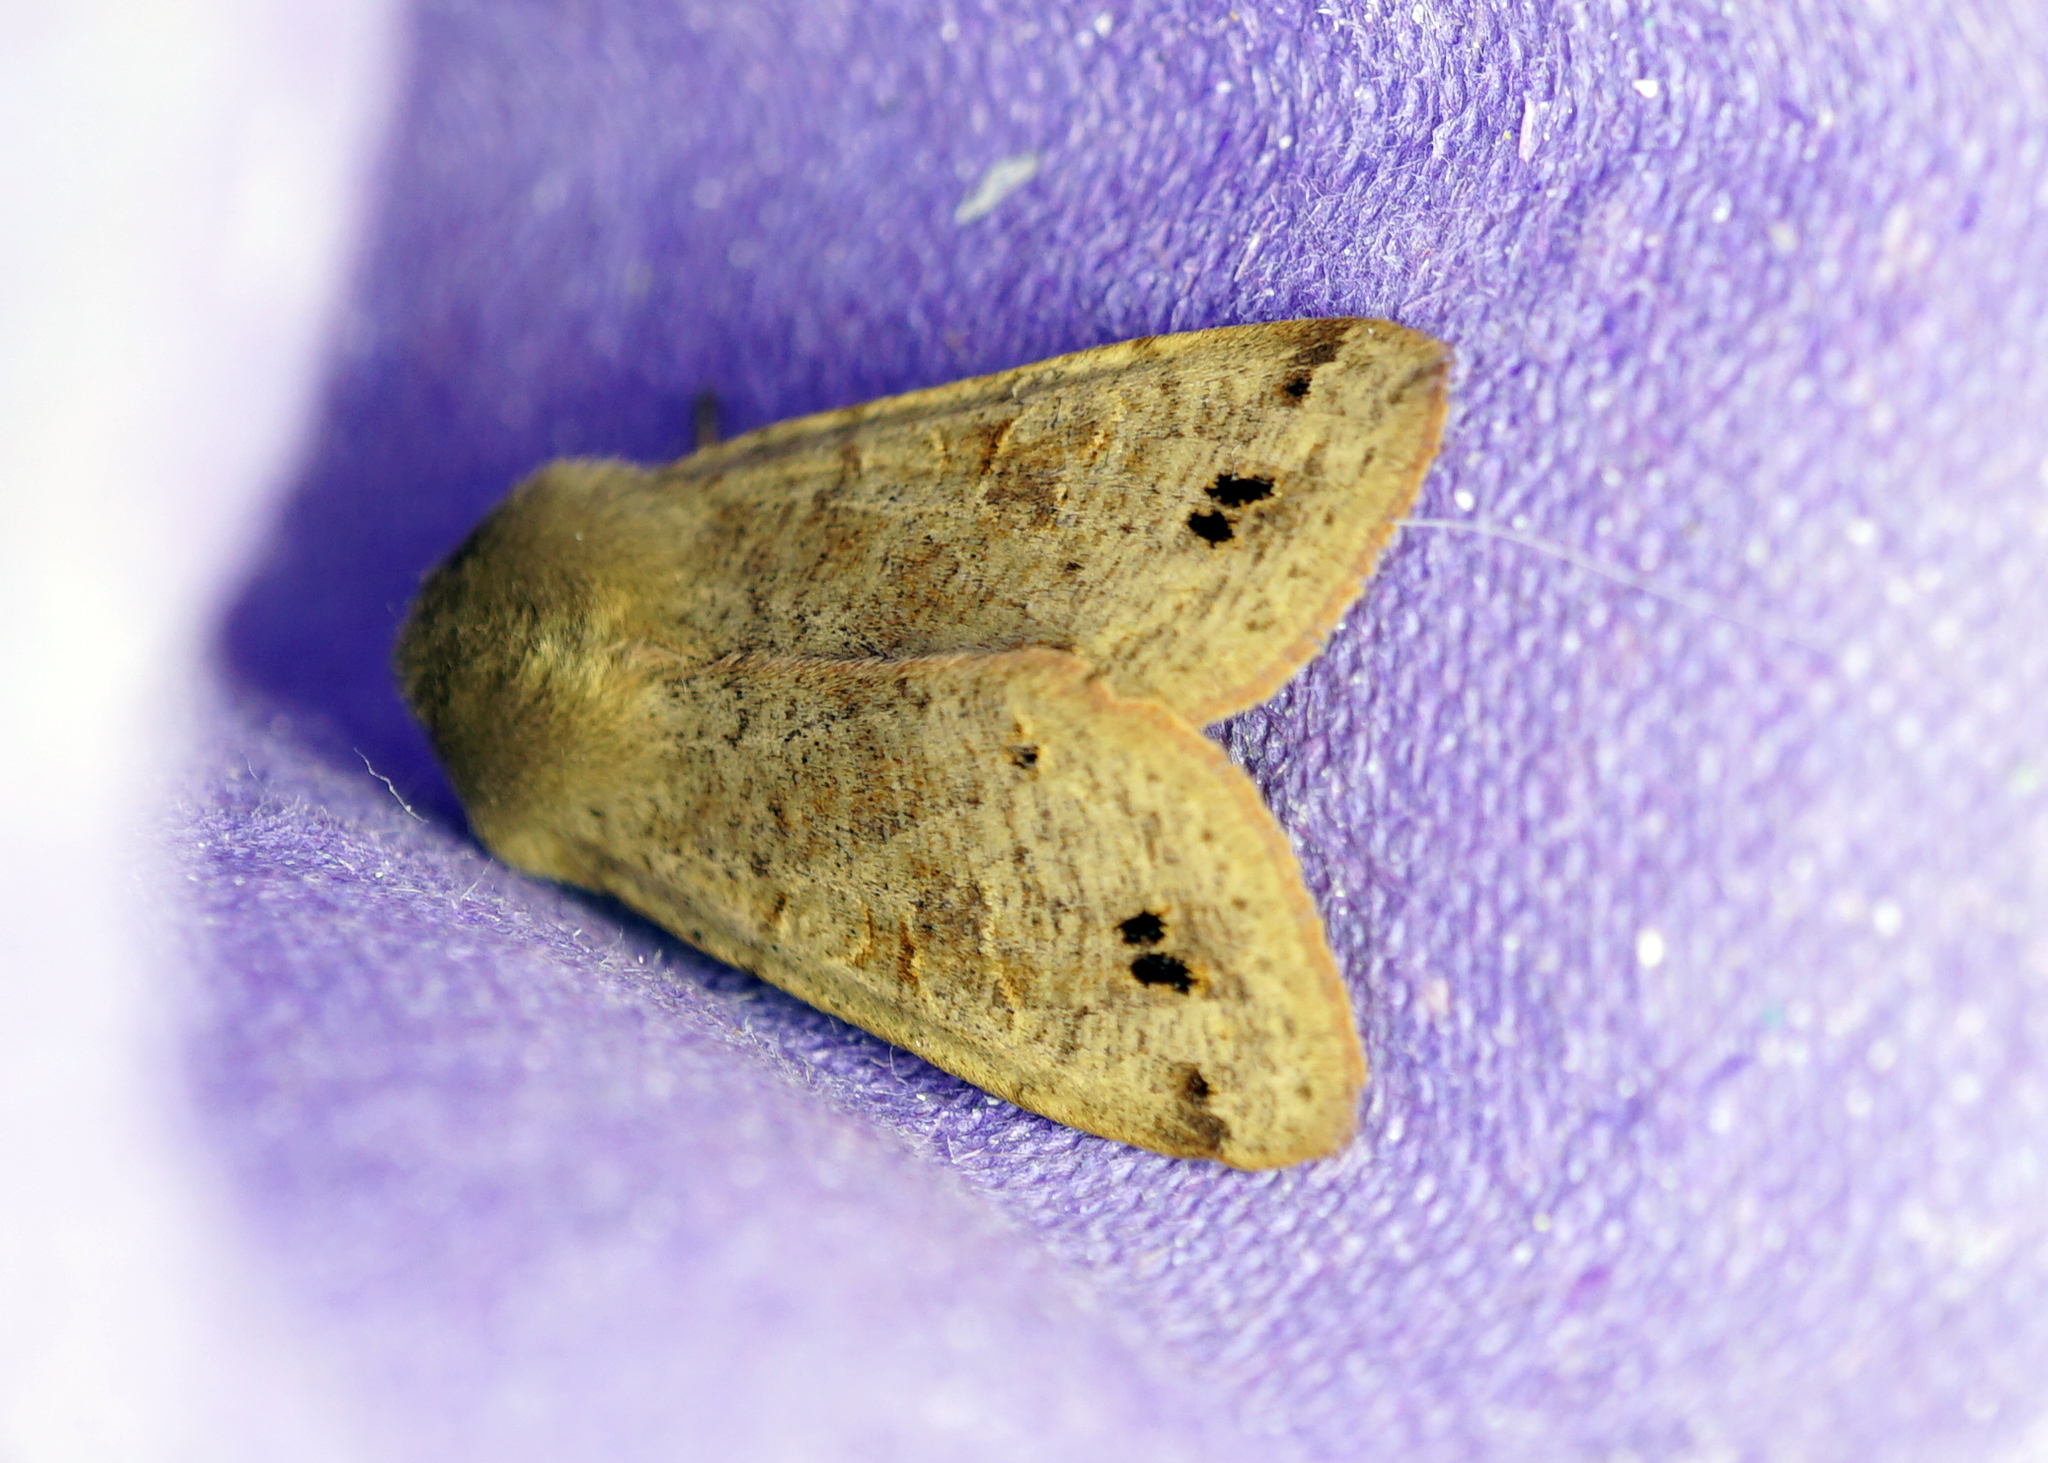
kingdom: Animalia
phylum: Arthropoda
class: Insecta
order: Lepidoptera
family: Noctuidae
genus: Anorthoa
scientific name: Anorthoa munda
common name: Twin-spotted quaker
